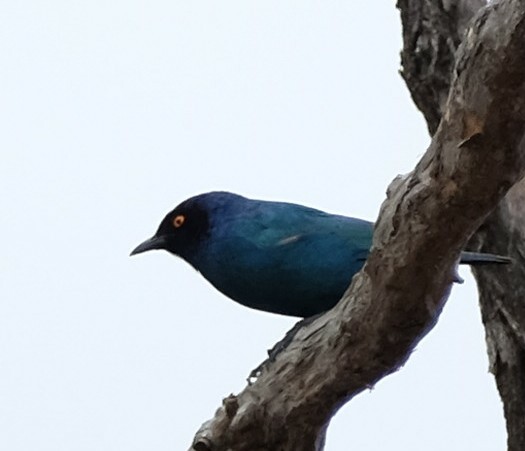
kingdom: Animalia
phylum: Chordata
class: Aves
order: Passeriformes
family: Sturnidae
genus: Lamprotornis
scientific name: Lamprotornis nitens
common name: Cape starling
